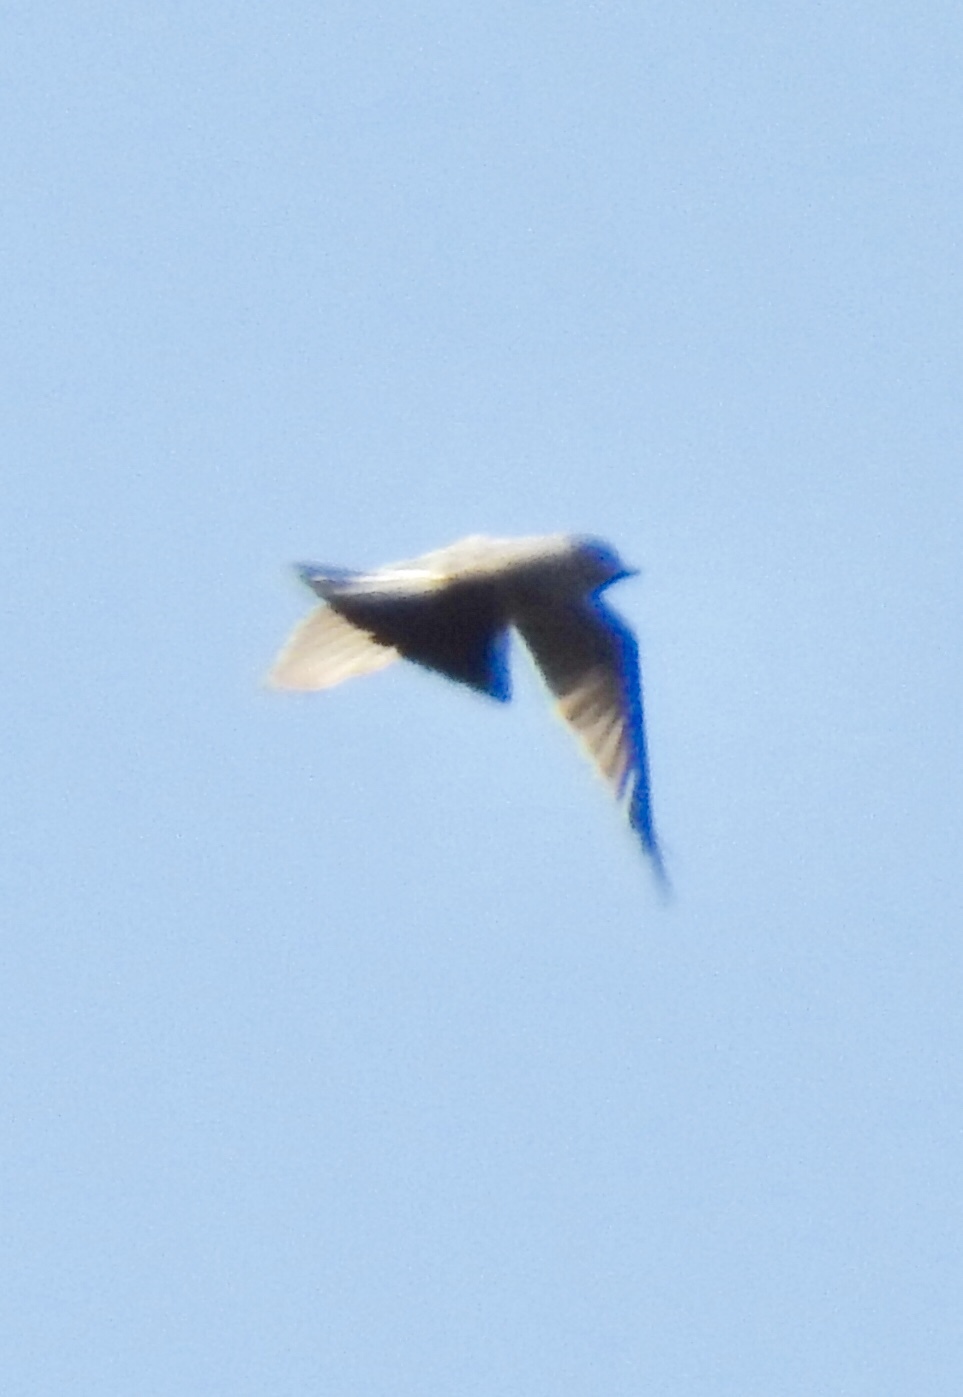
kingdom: Animalia
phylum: Chordata
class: Aves
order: Passeriformes
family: Tyrannidae
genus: Tyrannus
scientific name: Tyrannus verticalis
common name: Western kingbird
